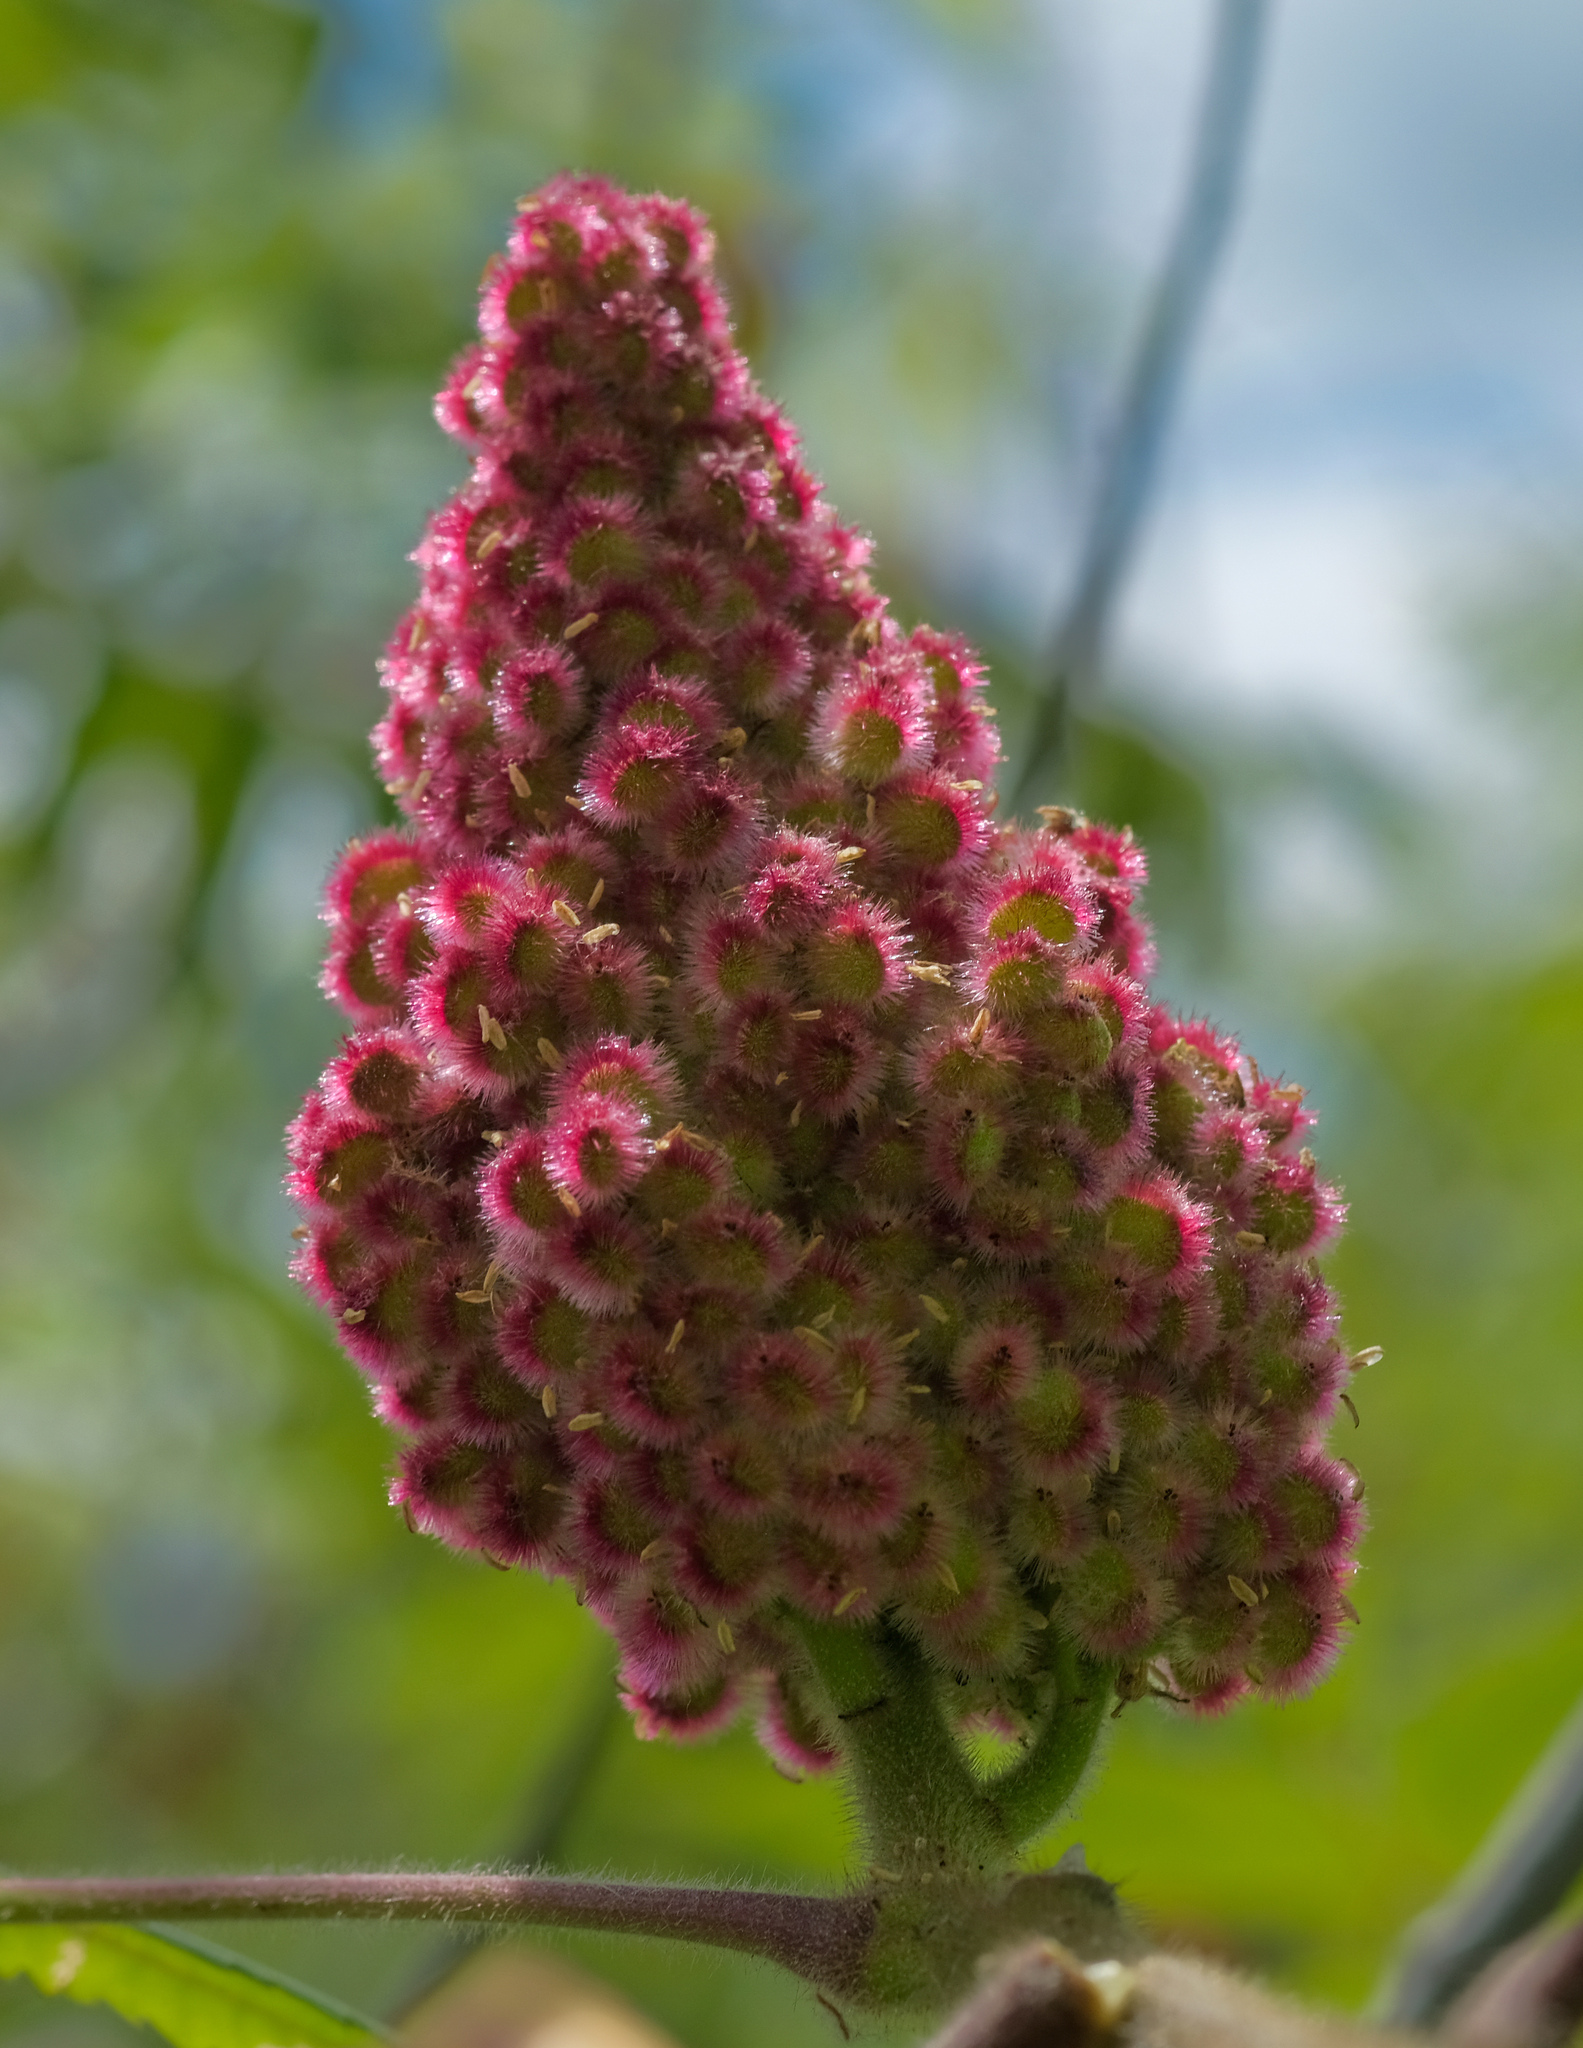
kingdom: Plantae
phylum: Tracheophyta
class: Magnoliopsida
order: Sapindales
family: Anacardiaceae
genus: Rhus
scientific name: Rhus typhina
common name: Staghorn sumac
